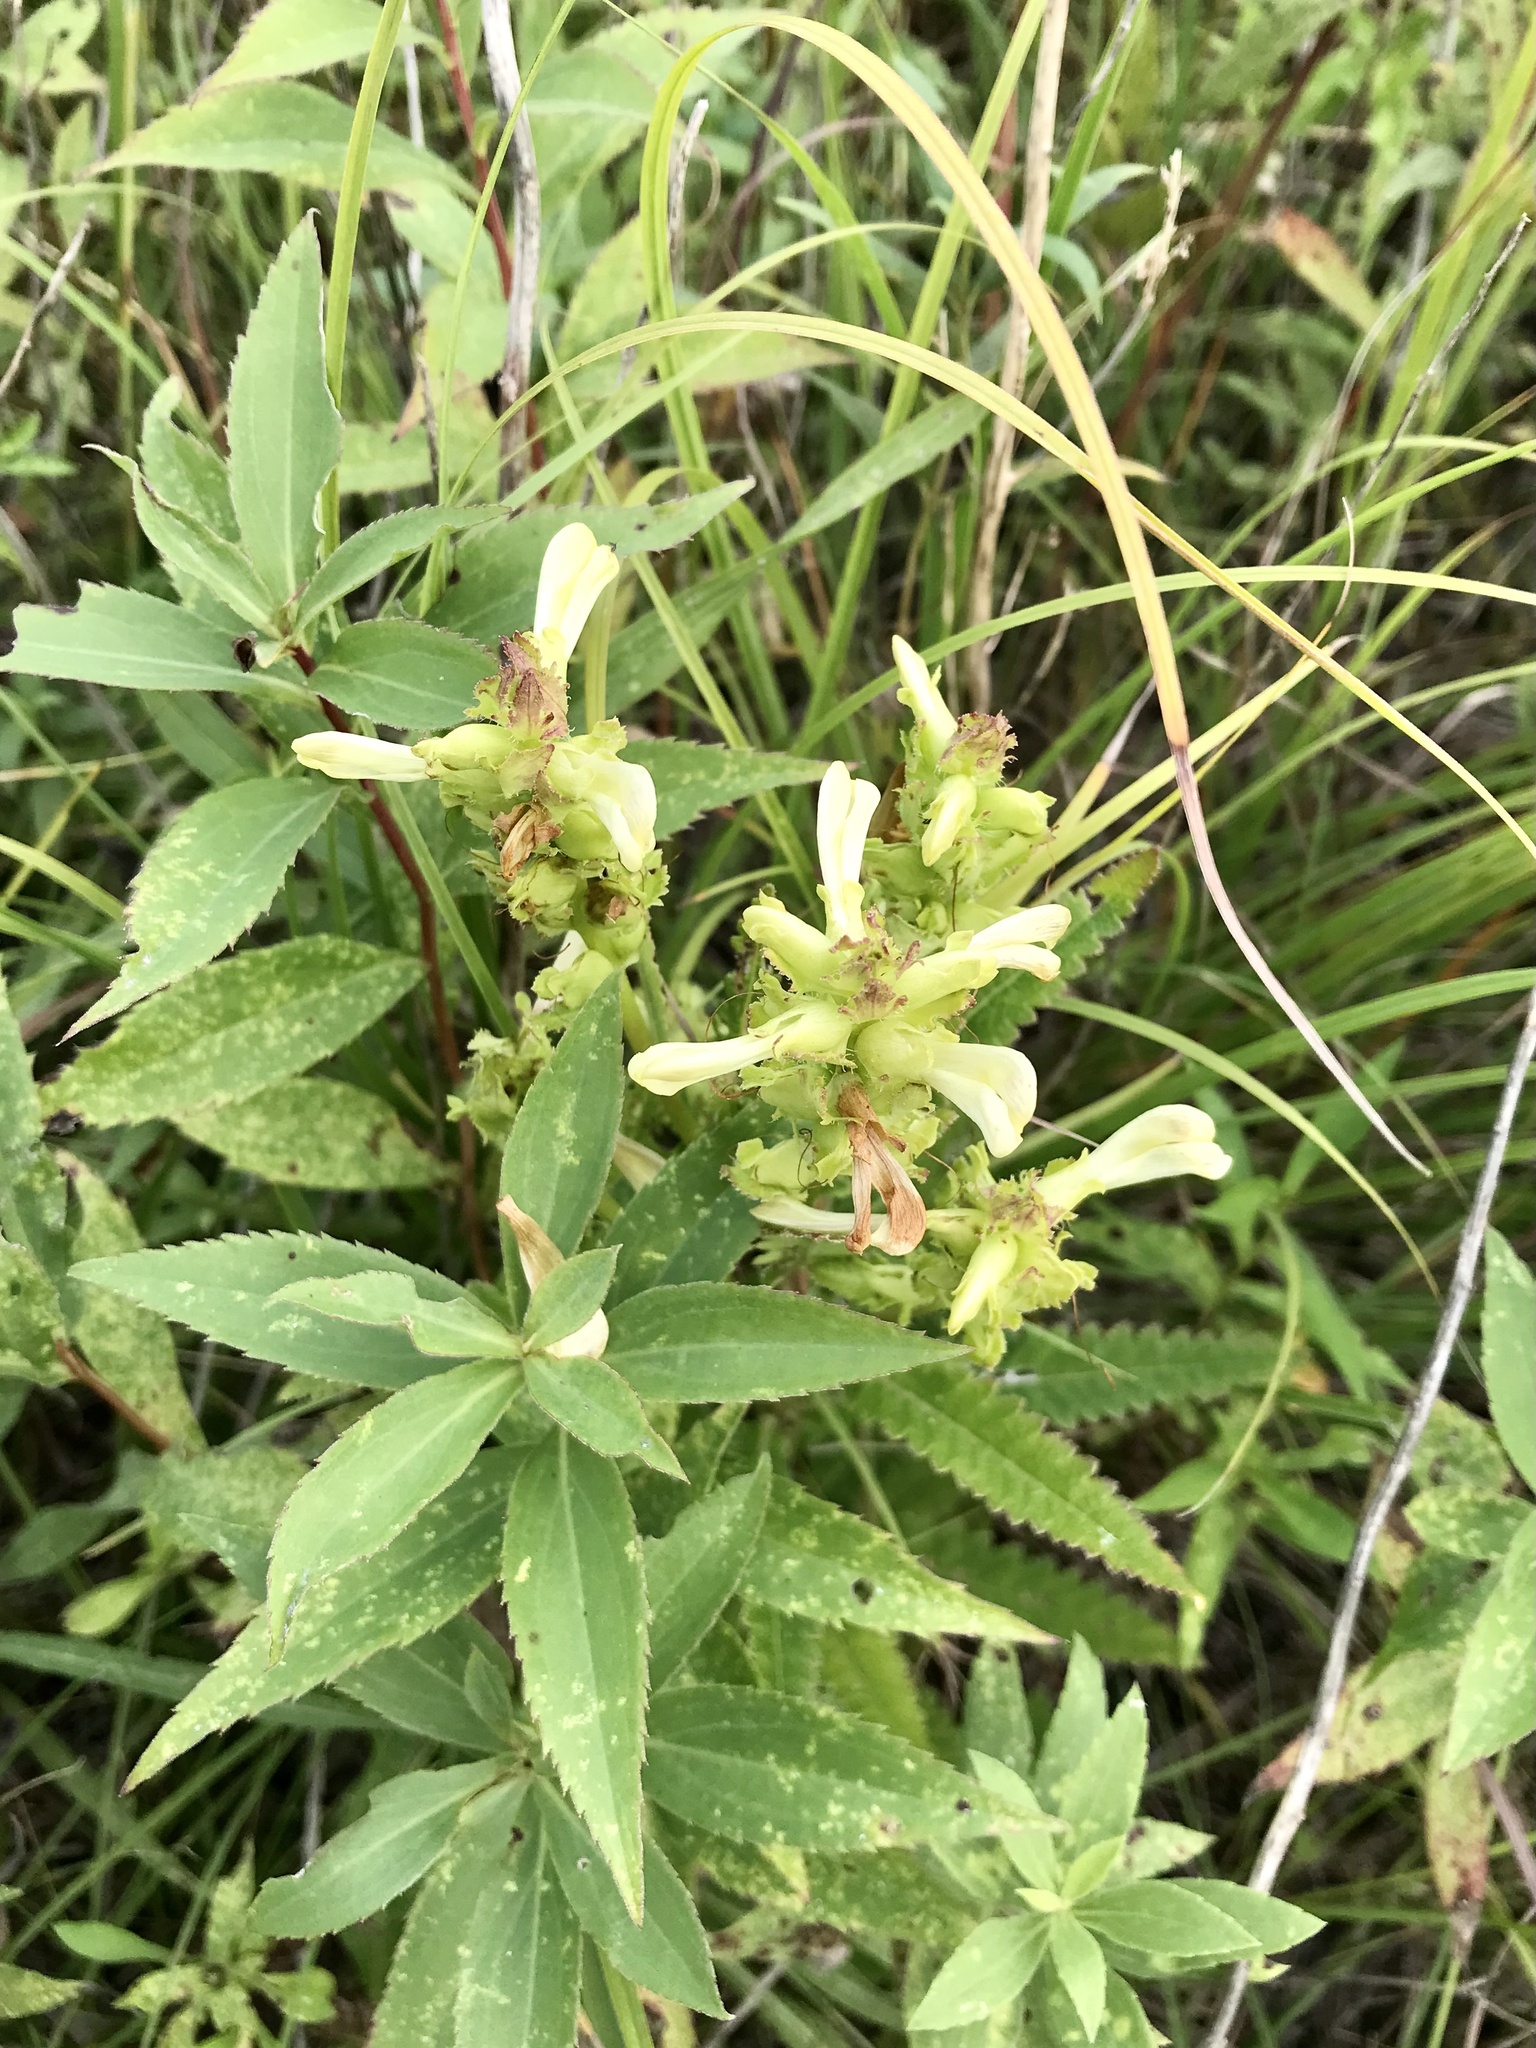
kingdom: Plantae
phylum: Tracheophyta
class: Magnoliopsida
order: Lamiales
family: Orobanchaceae
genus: Pedicularis
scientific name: Pedicularis lanceolata
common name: Swamp lousewort
